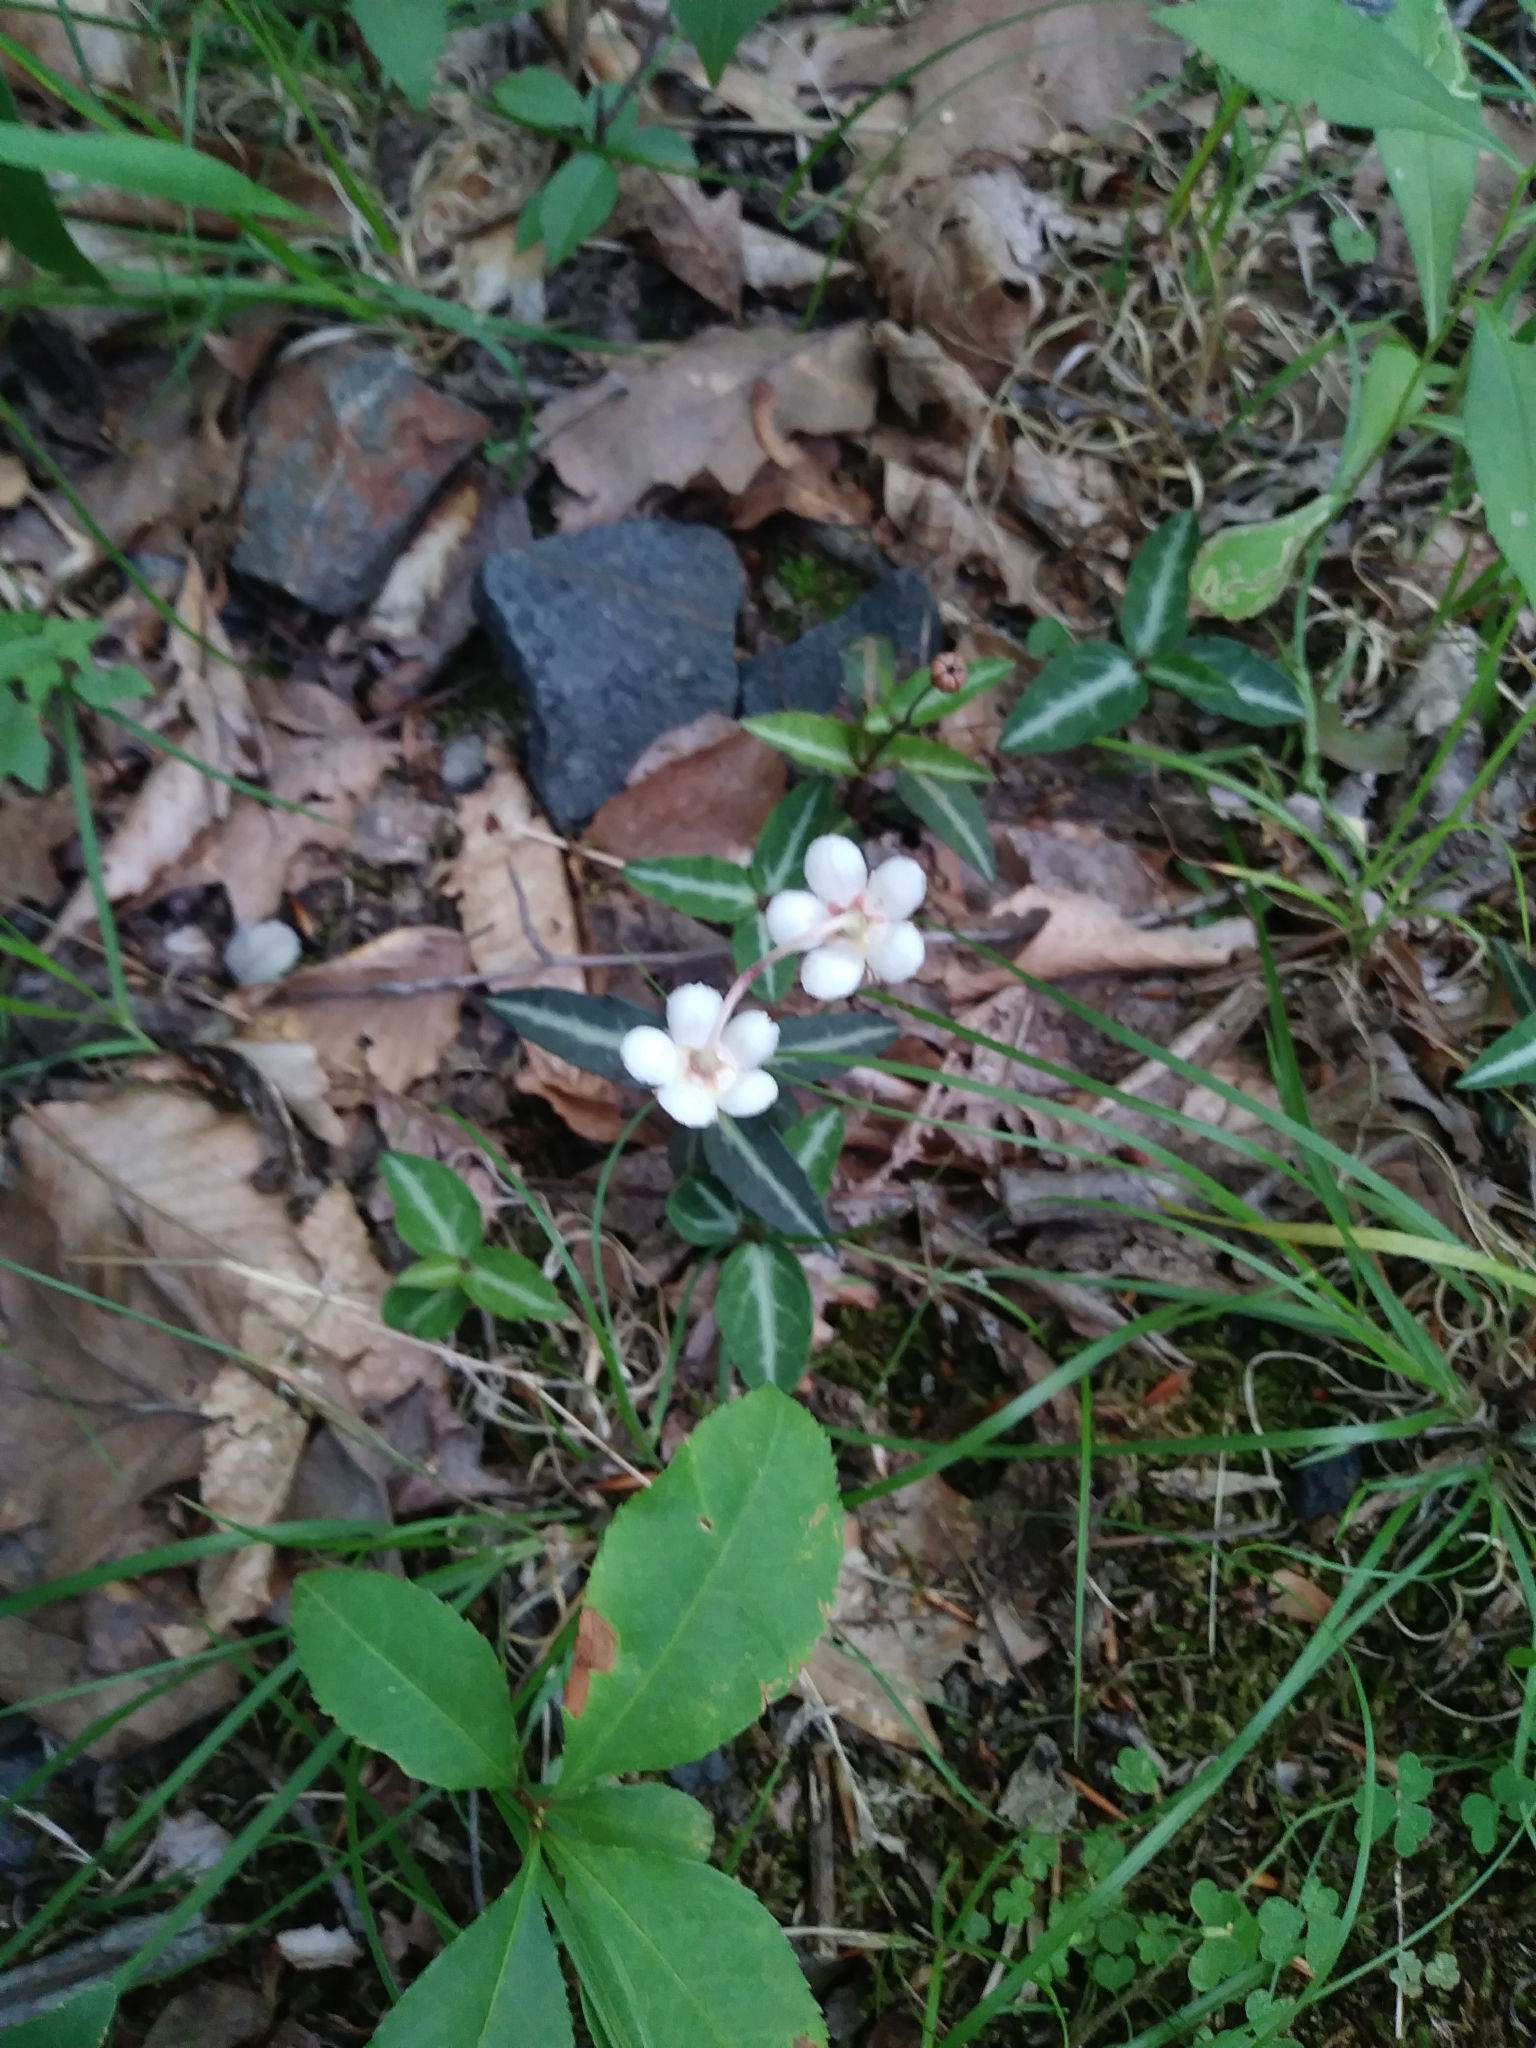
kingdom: Plantae
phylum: Tracheophyta
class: Magnoliopsida
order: Ericales
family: Ericaceae
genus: Chimaphila
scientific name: Chimaphila maculata
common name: Spotted pipsissewa
